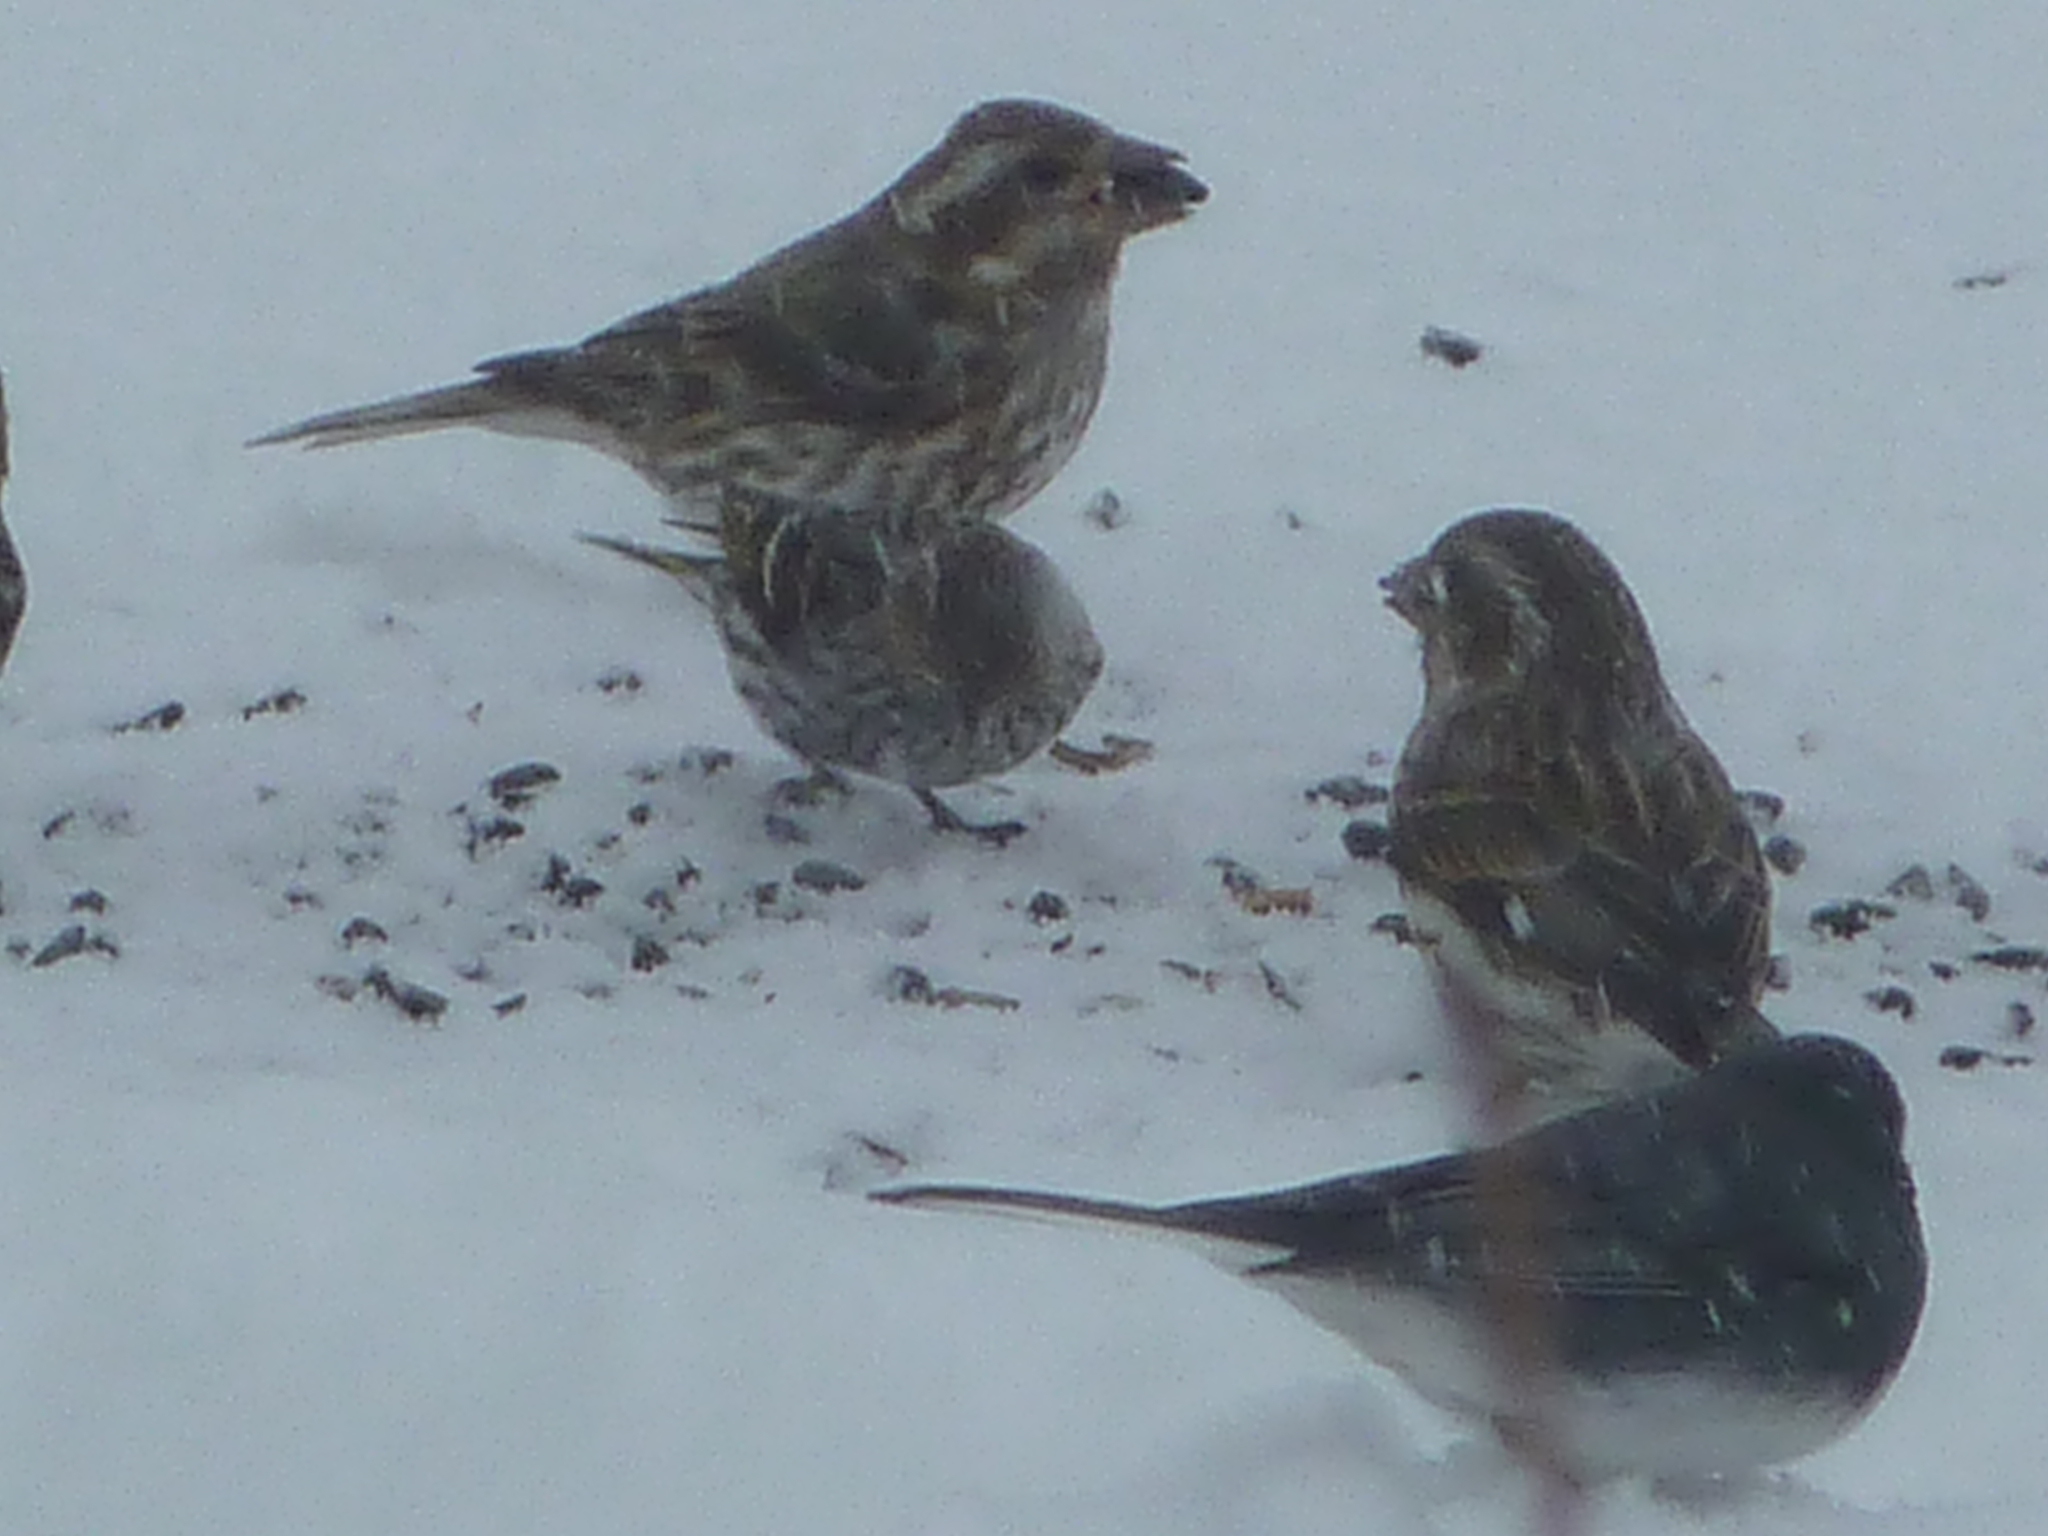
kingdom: Animalia
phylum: Chordata
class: Aves
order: Passeriformes
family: Passerellidae
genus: Junco
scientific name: Junco hyemalis
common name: Dark-eyed junco
